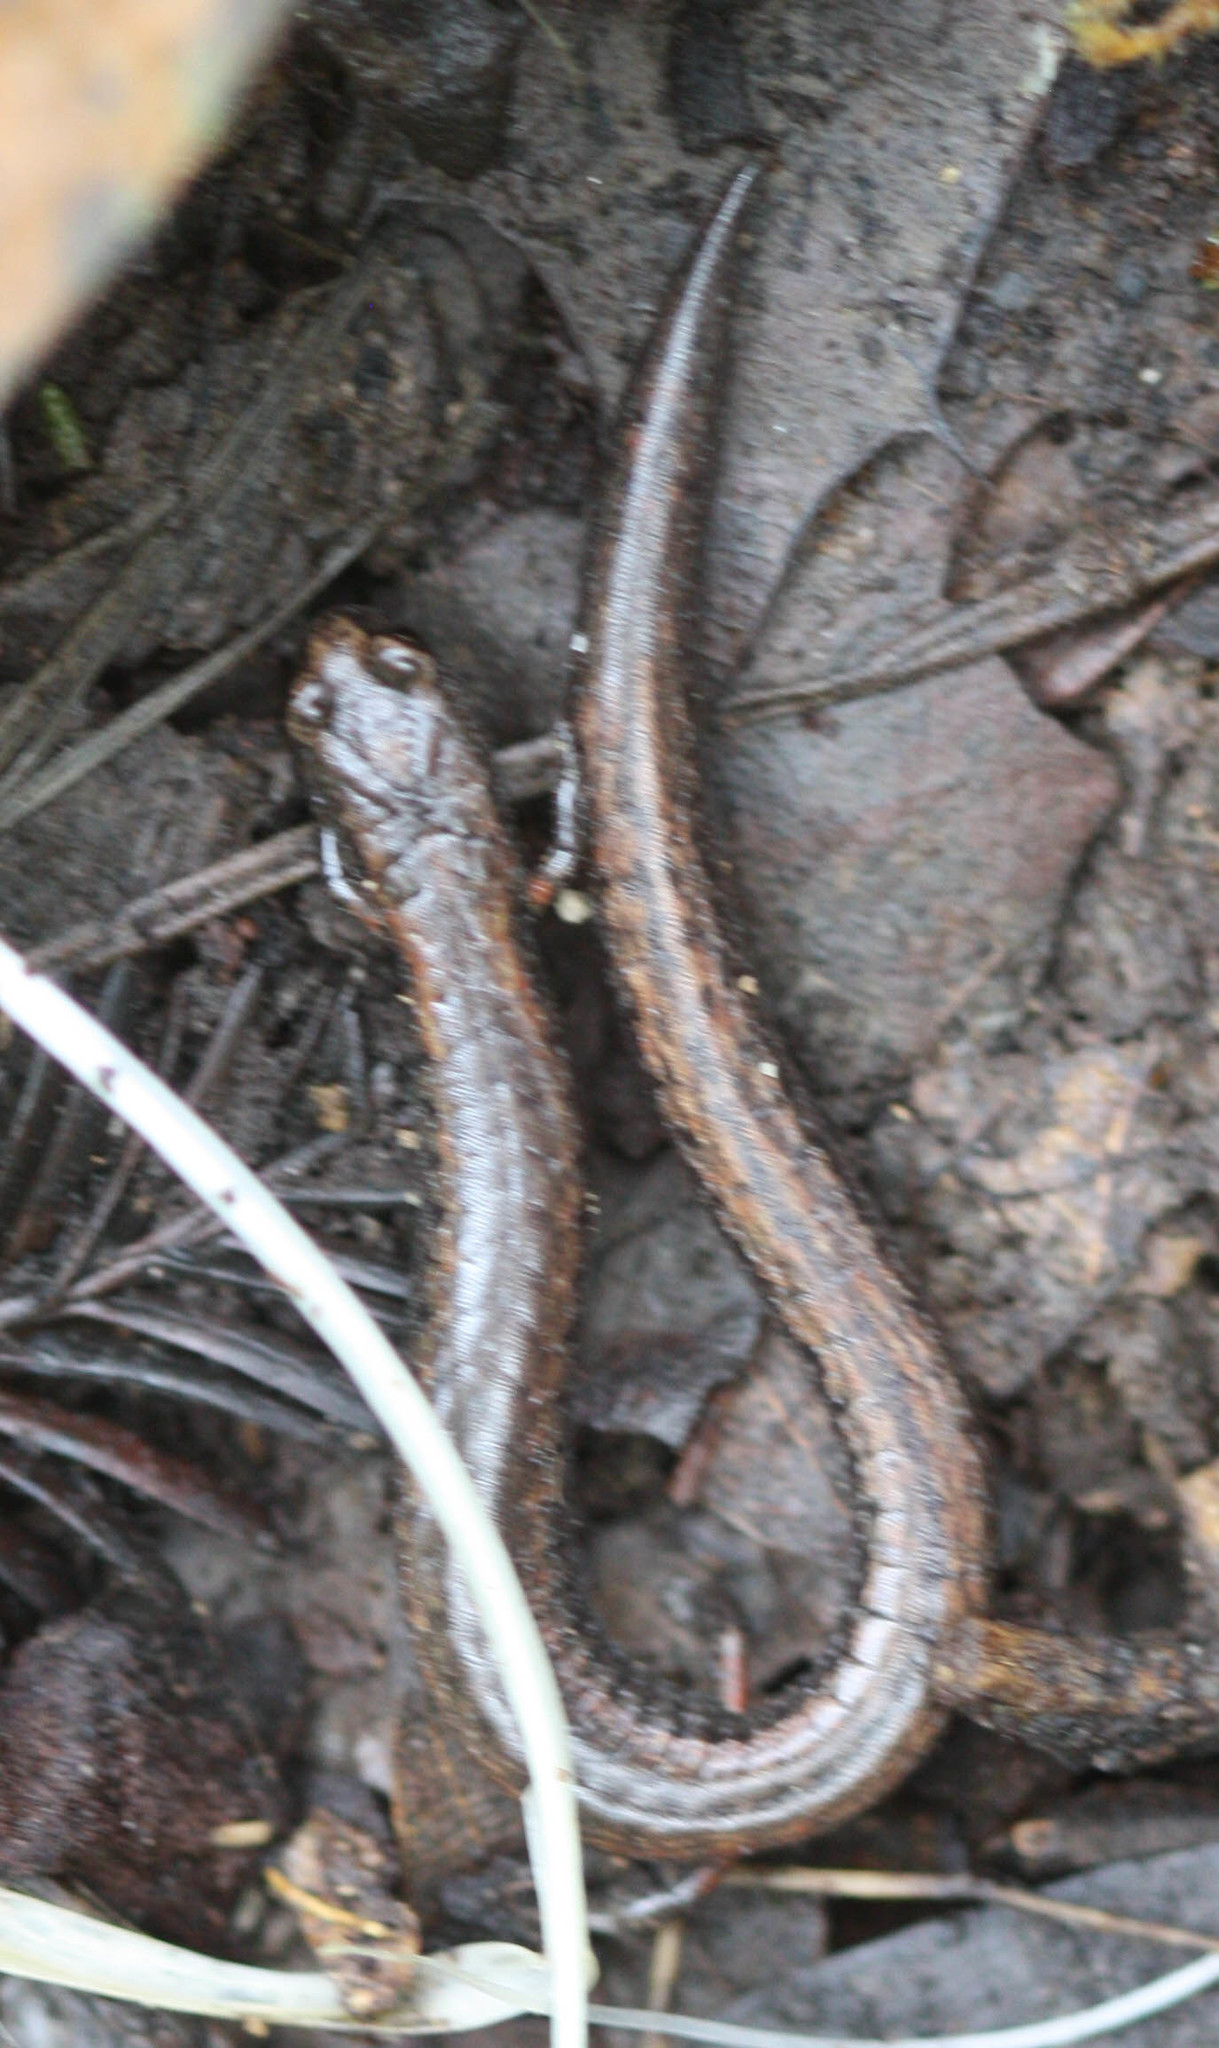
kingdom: Animalia
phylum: Chordata
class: Amphibia
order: Caudata
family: Plethodontidae
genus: Batrachoseps
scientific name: Batrachoseps attenuatus
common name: California slender salamander
